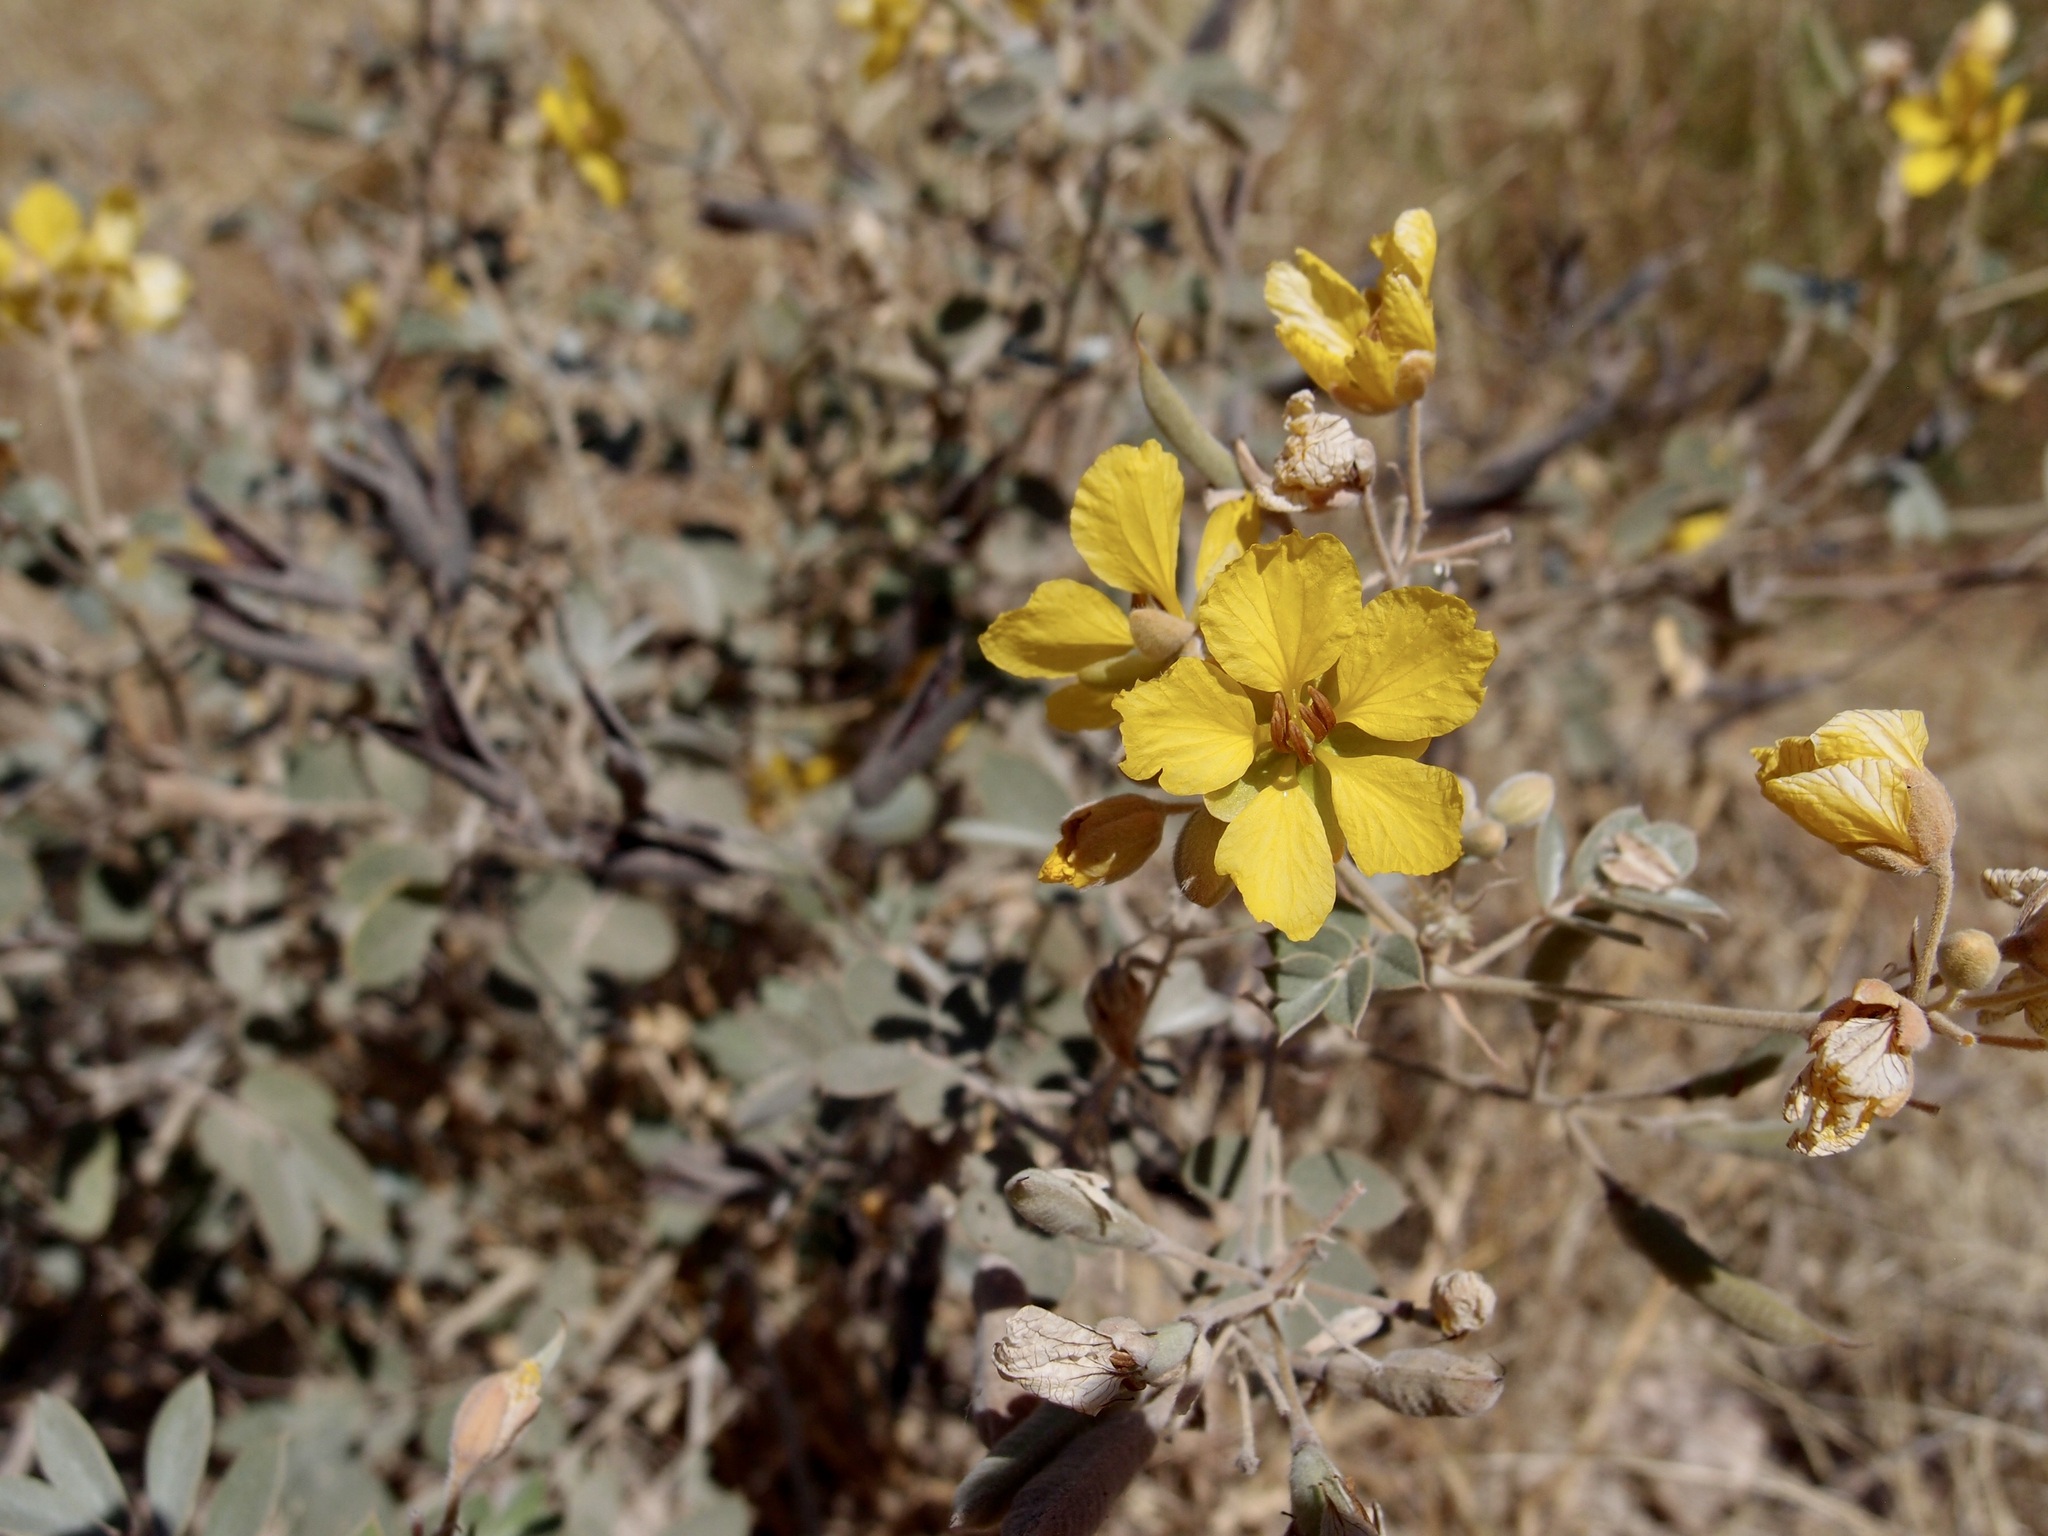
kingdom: Plantae
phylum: Tracheophyta
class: Magnoliopsida
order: Fabales
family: Fabaceae
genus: Senna
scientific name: Senna covesii
